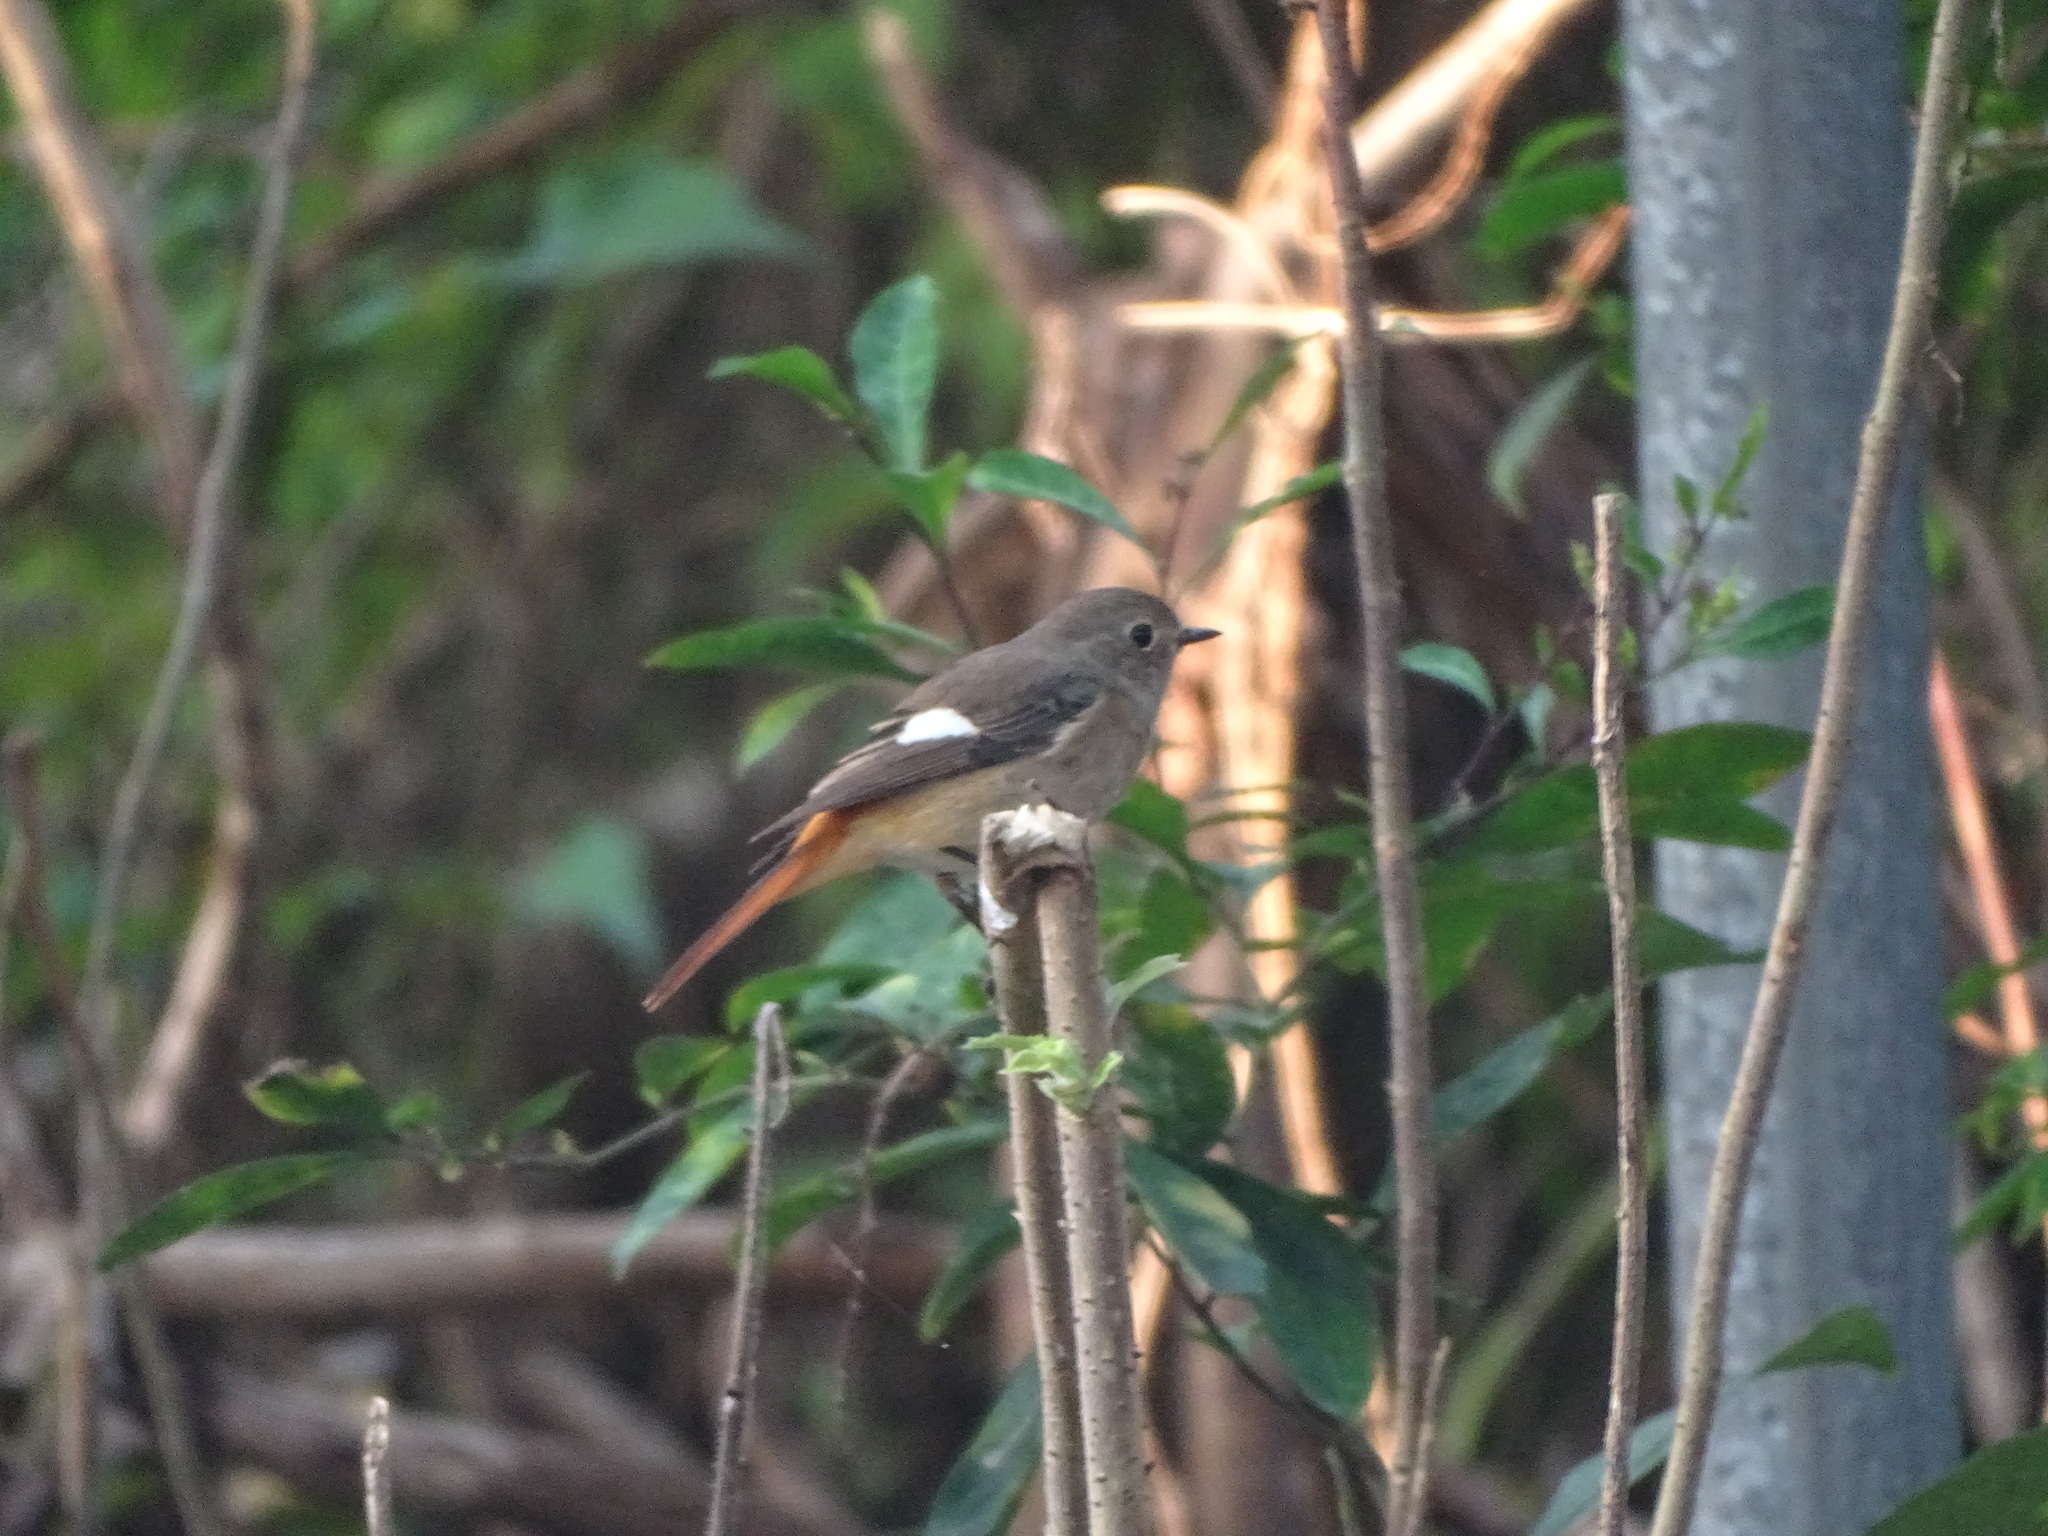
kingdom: Animalia
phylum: Chordata
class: Aves
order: Passeriformes
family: Muscicapidae
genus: Phoenicurus
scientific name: Phoenicurus auroreus
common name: Daurian redstart
